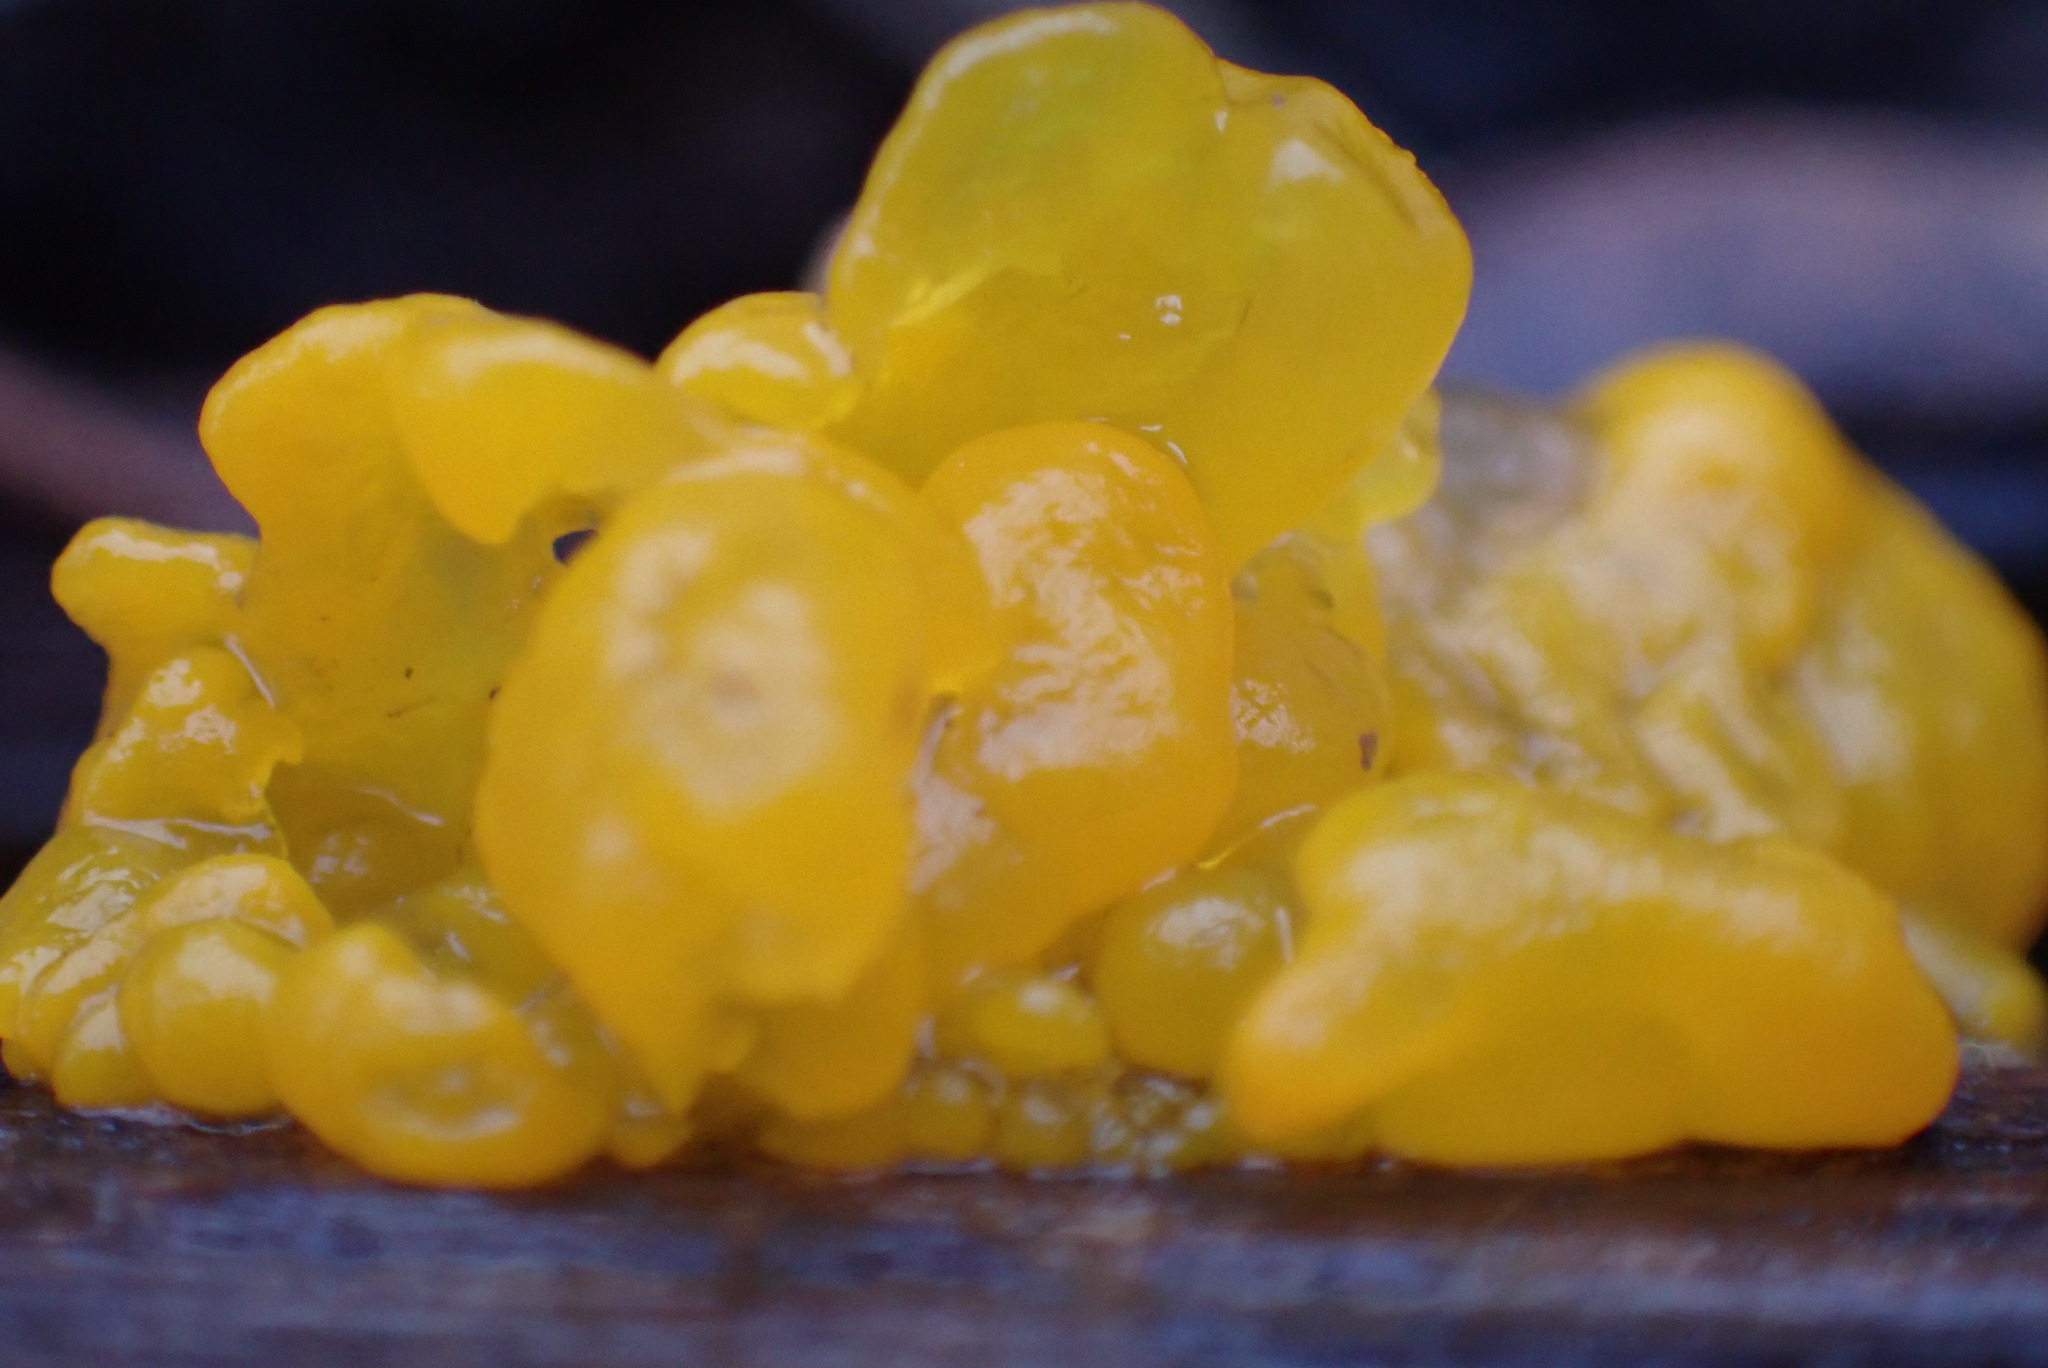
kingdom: Fungi
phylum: Basidiomycota
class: Tremellomycetes
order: Tremellales
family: Tremellaceae
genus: Tremella
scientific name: Tremella mesenterica
